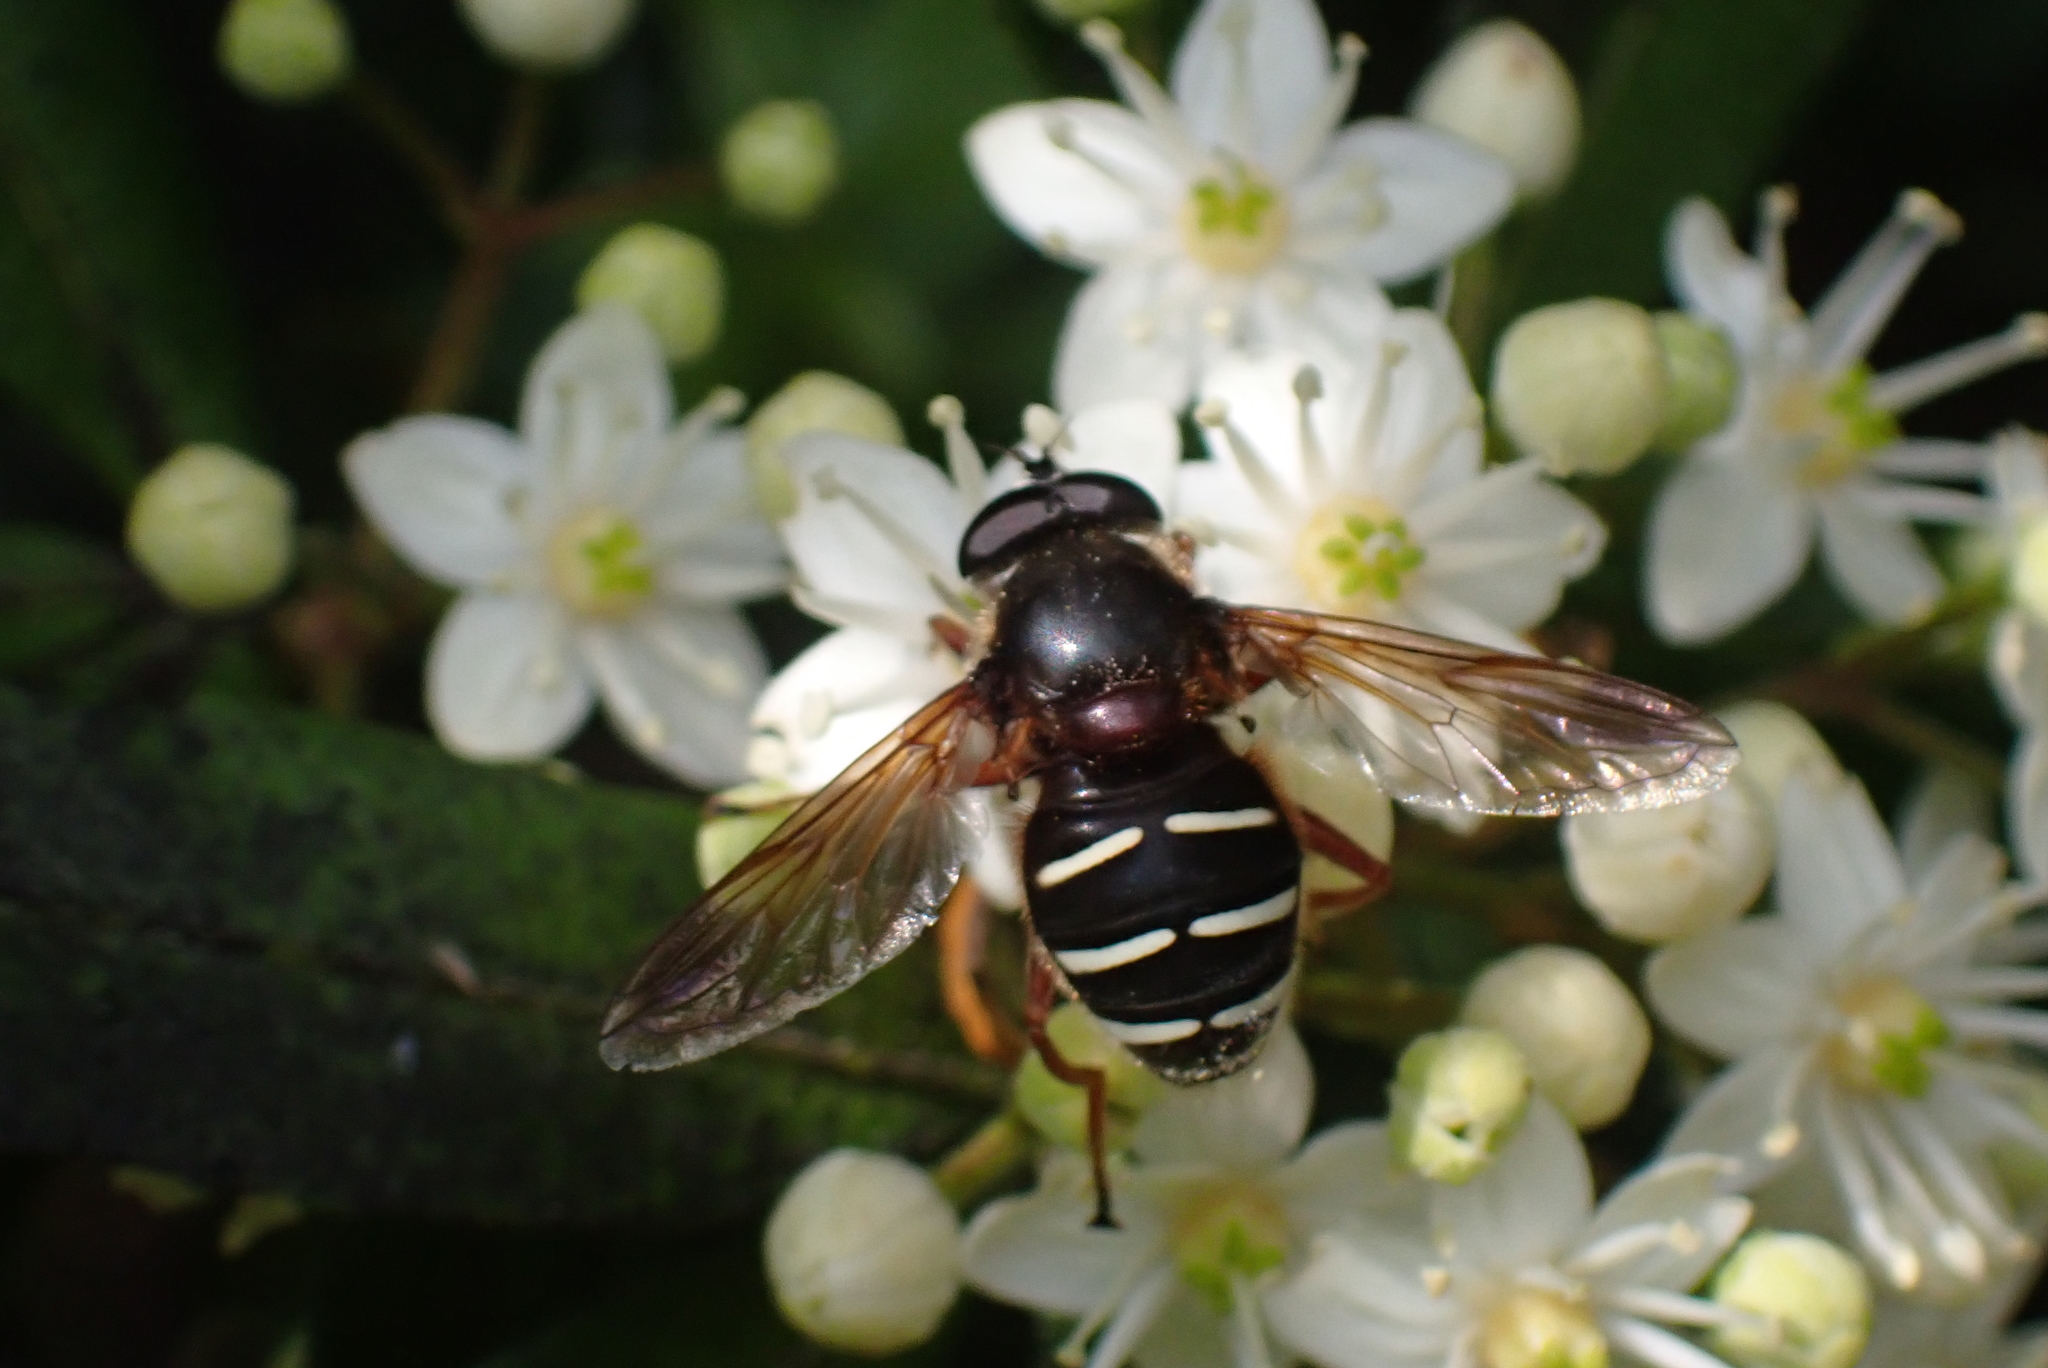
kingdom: Animalia
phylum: Arthropoda
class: Insecta
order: Diptera
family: Syrphidae
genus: Sericomyia
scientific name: Sericomyia lappona
